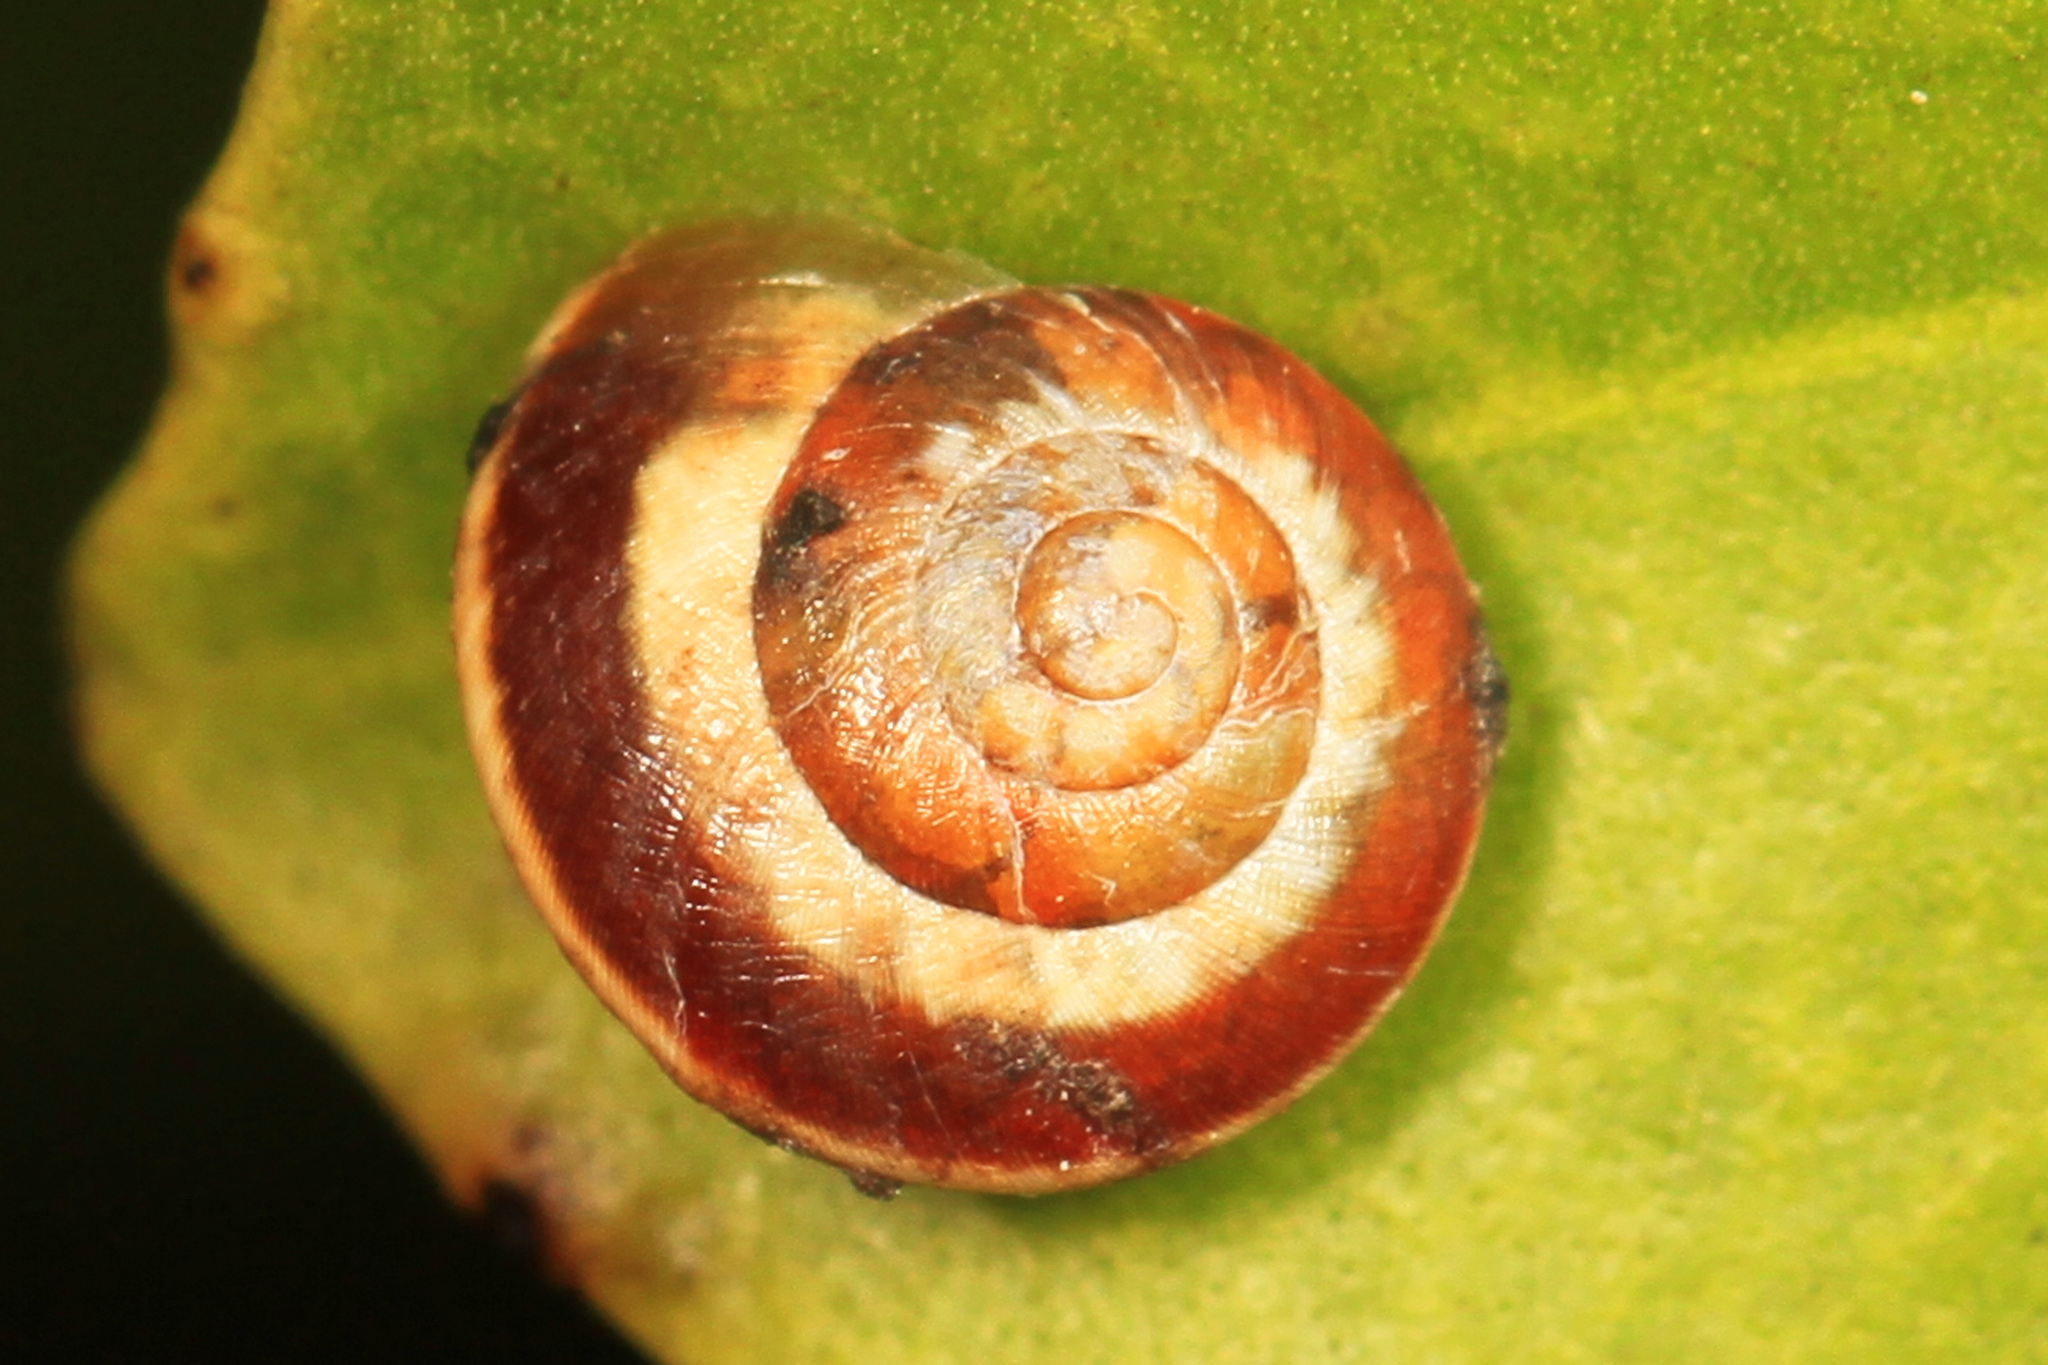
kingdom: Animalia
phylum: Mollusca
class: Gastropoda
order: Cycloneritida
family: Helicinidae
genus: Helicina
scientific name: Helicina clappi
